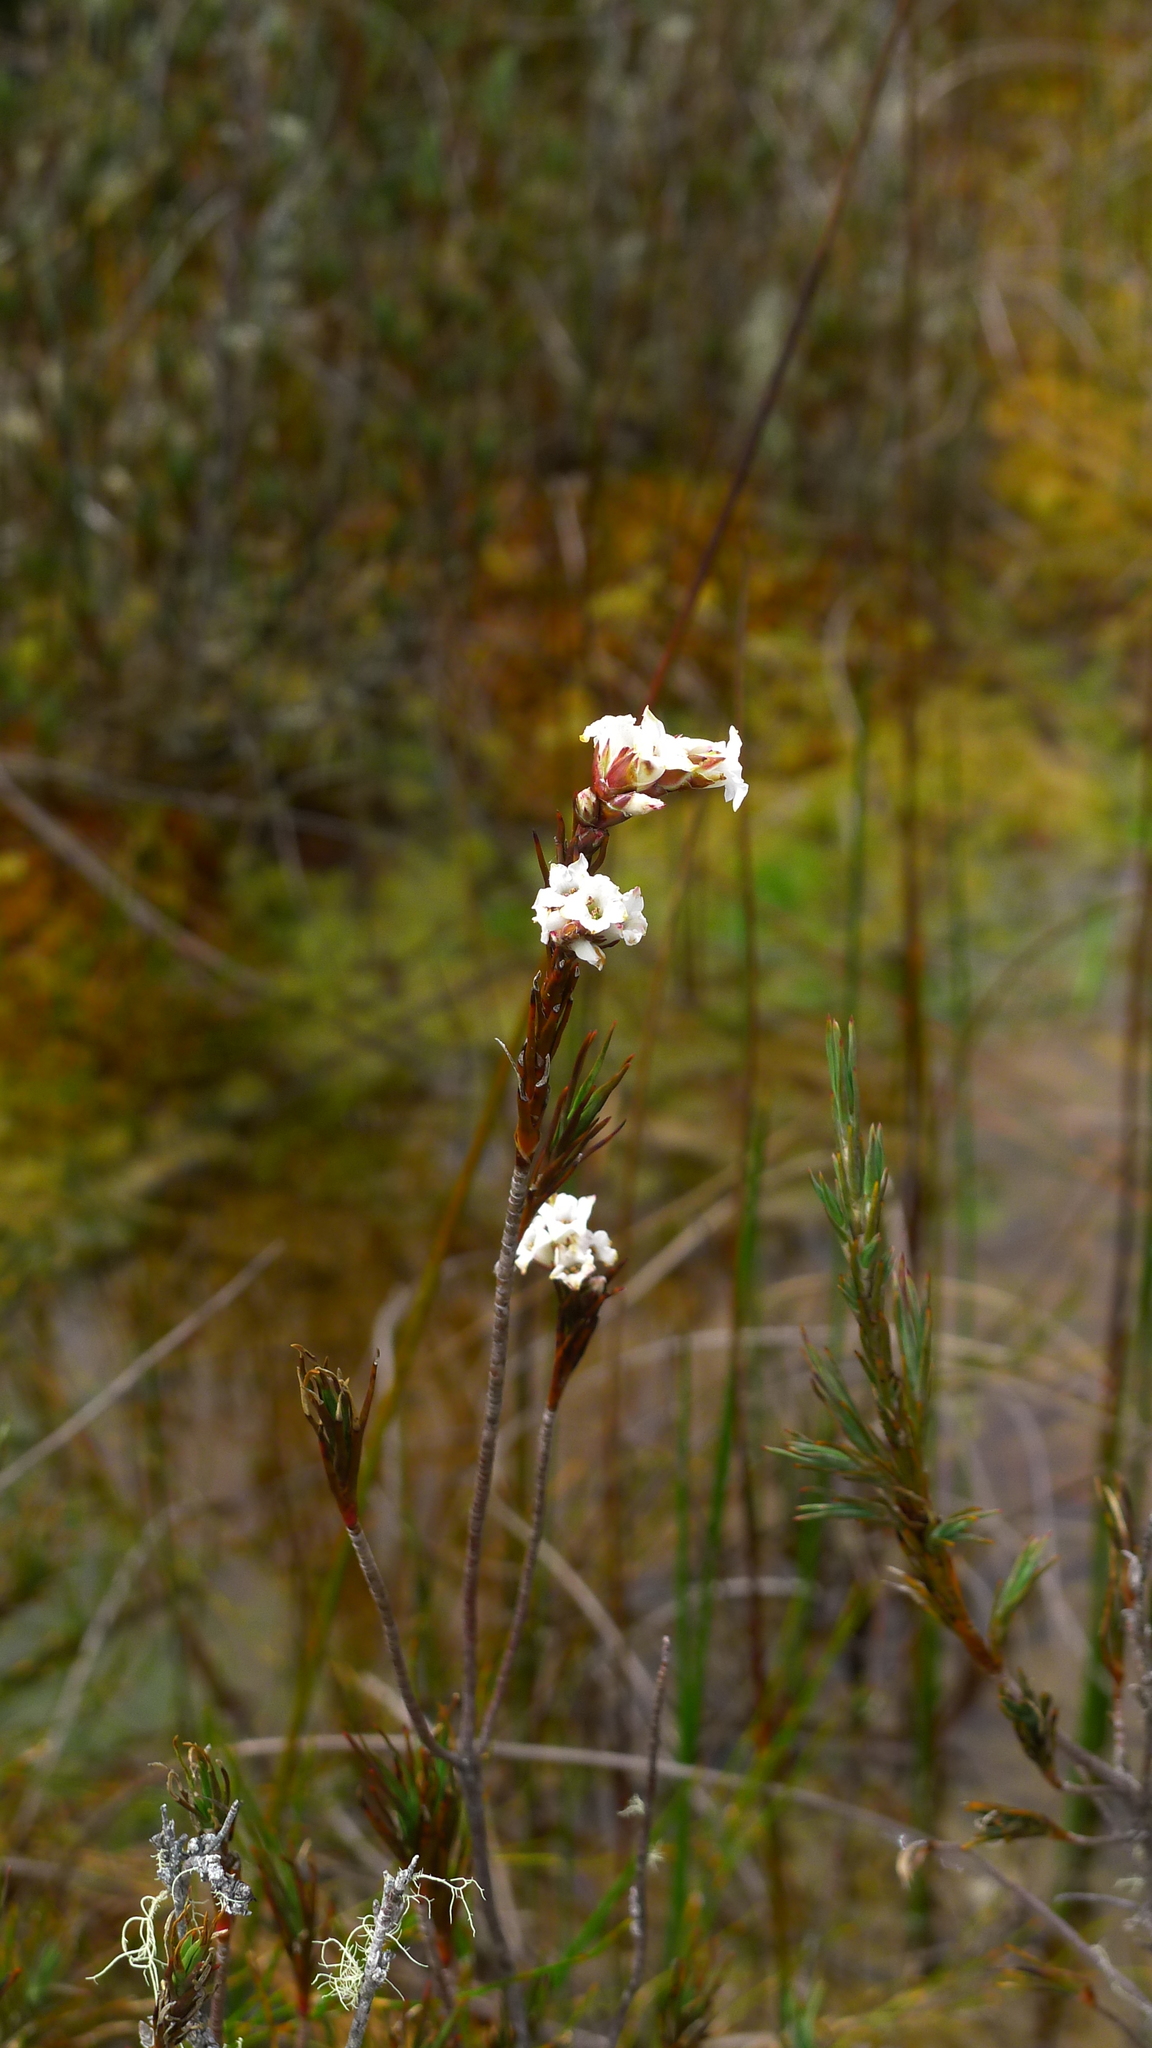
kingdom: Plantae
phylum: Tracheophyta
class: Magnoliopsida
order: Ericales
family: Ericaceae
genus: Dracophyllum
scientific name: Dracophyllum oliveri
